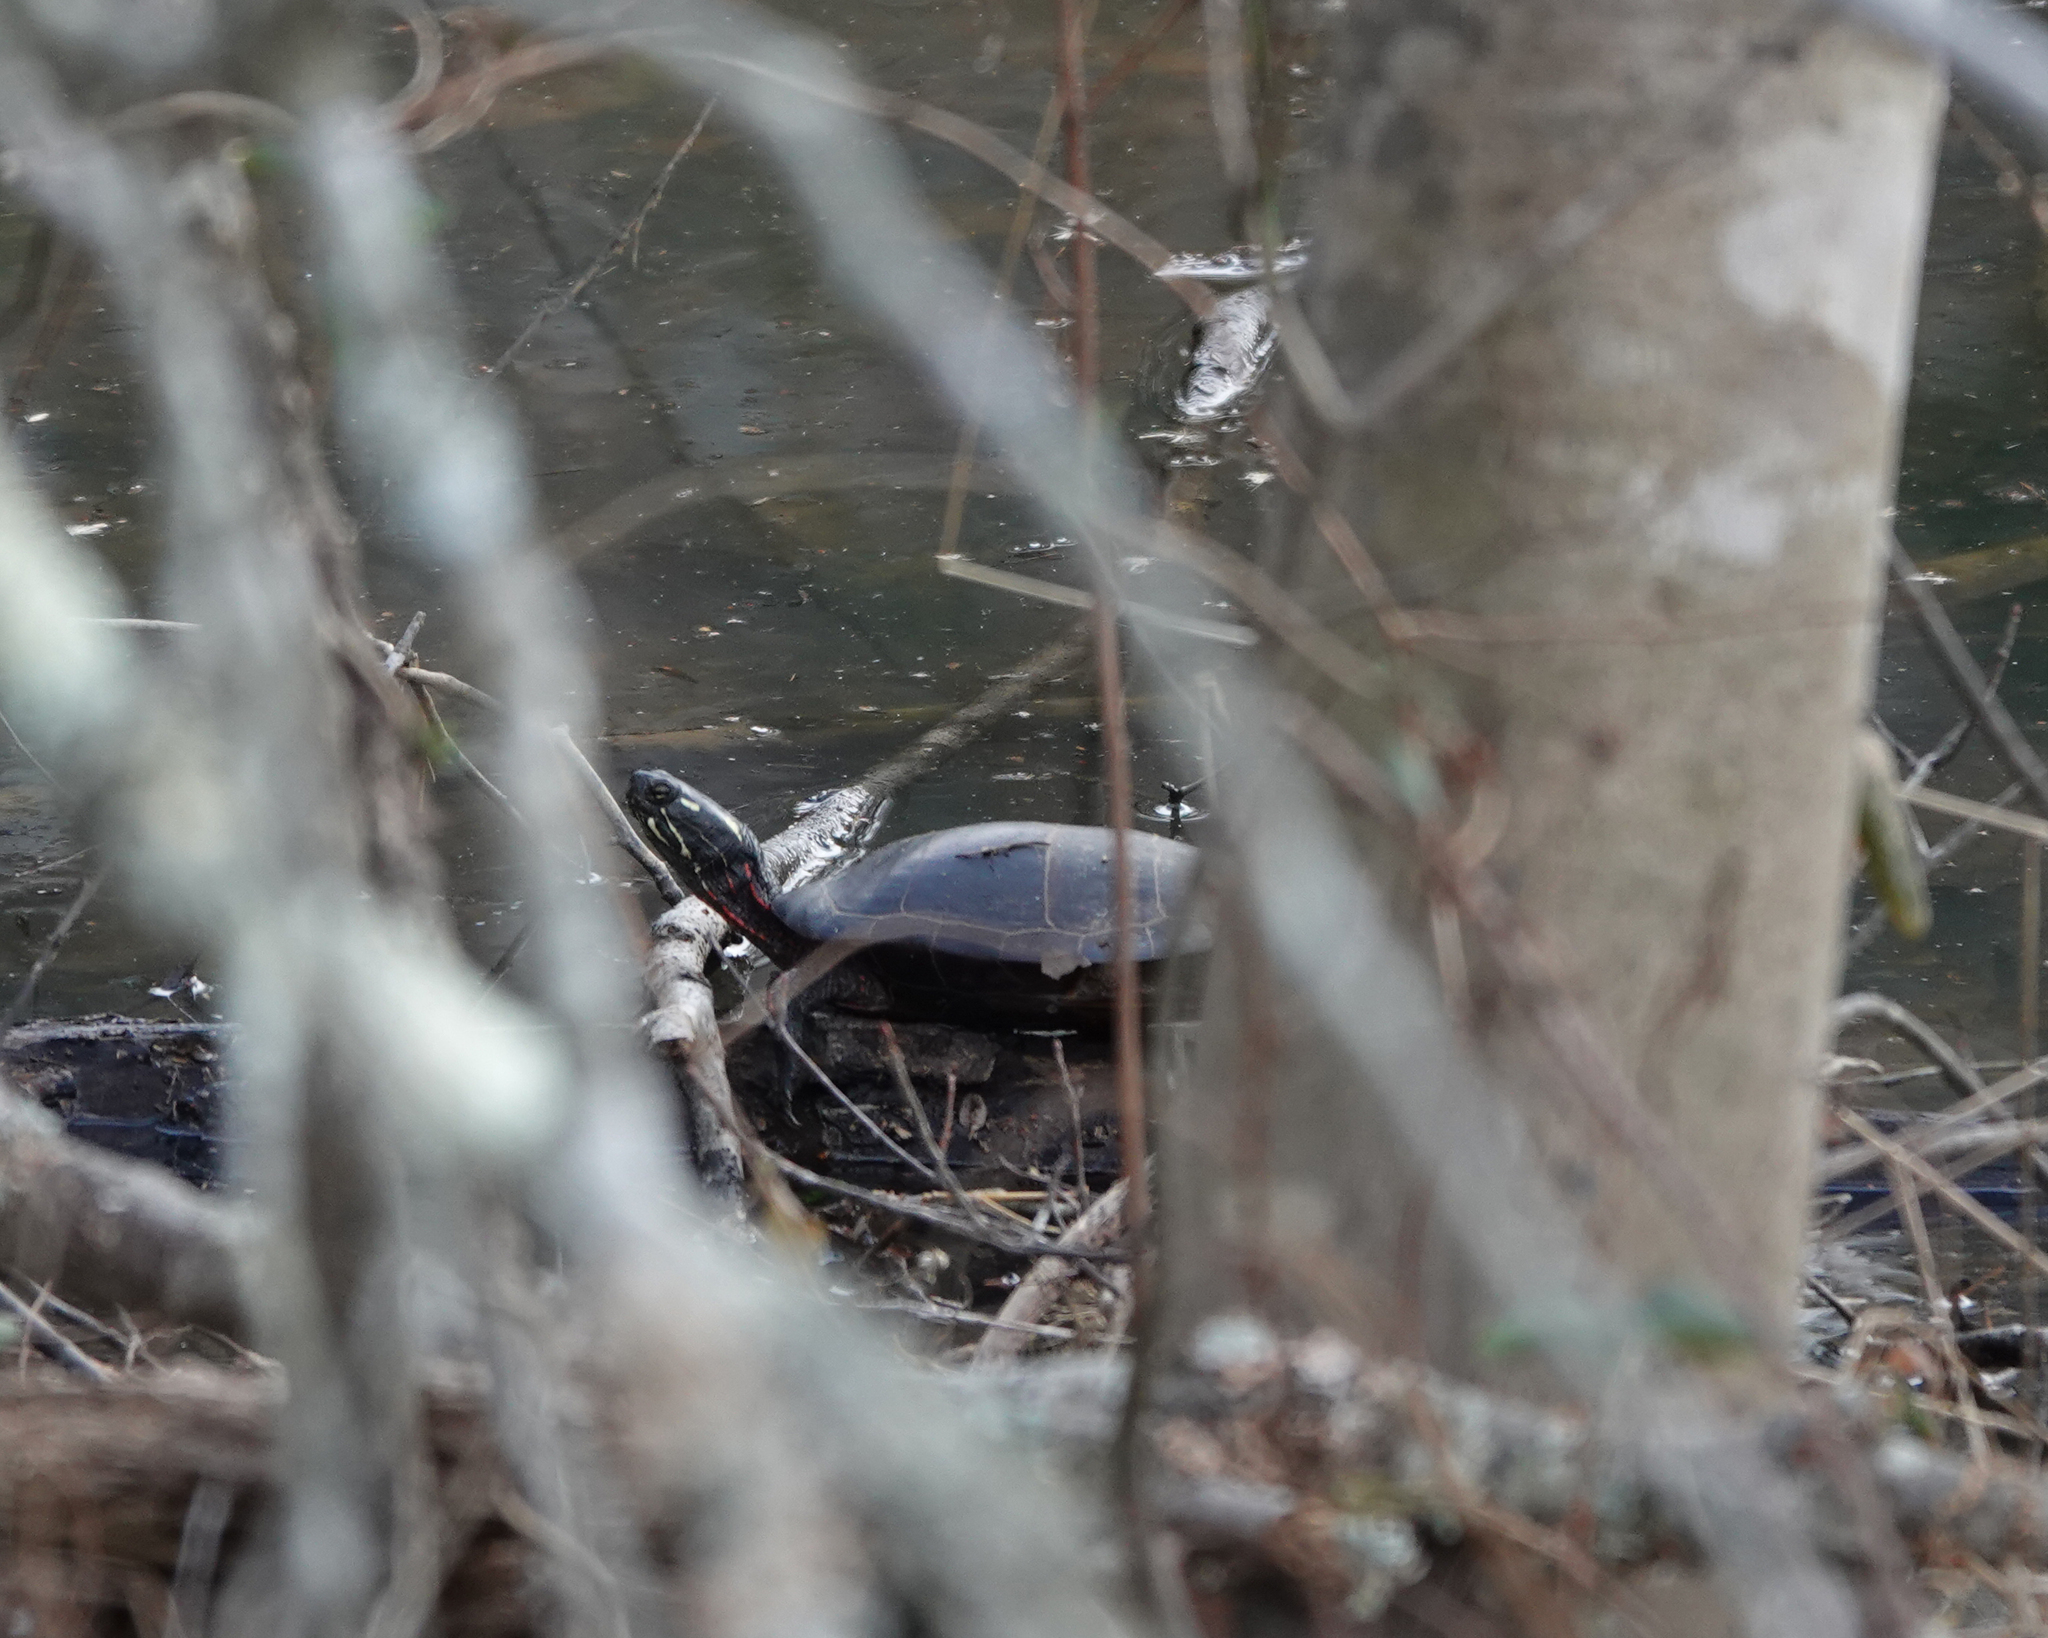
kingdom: Animalia
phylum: Chordata
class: Testudines
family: Emydidae
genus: Chrysemys
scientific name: Chrysemys picta
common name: Painted turtle
